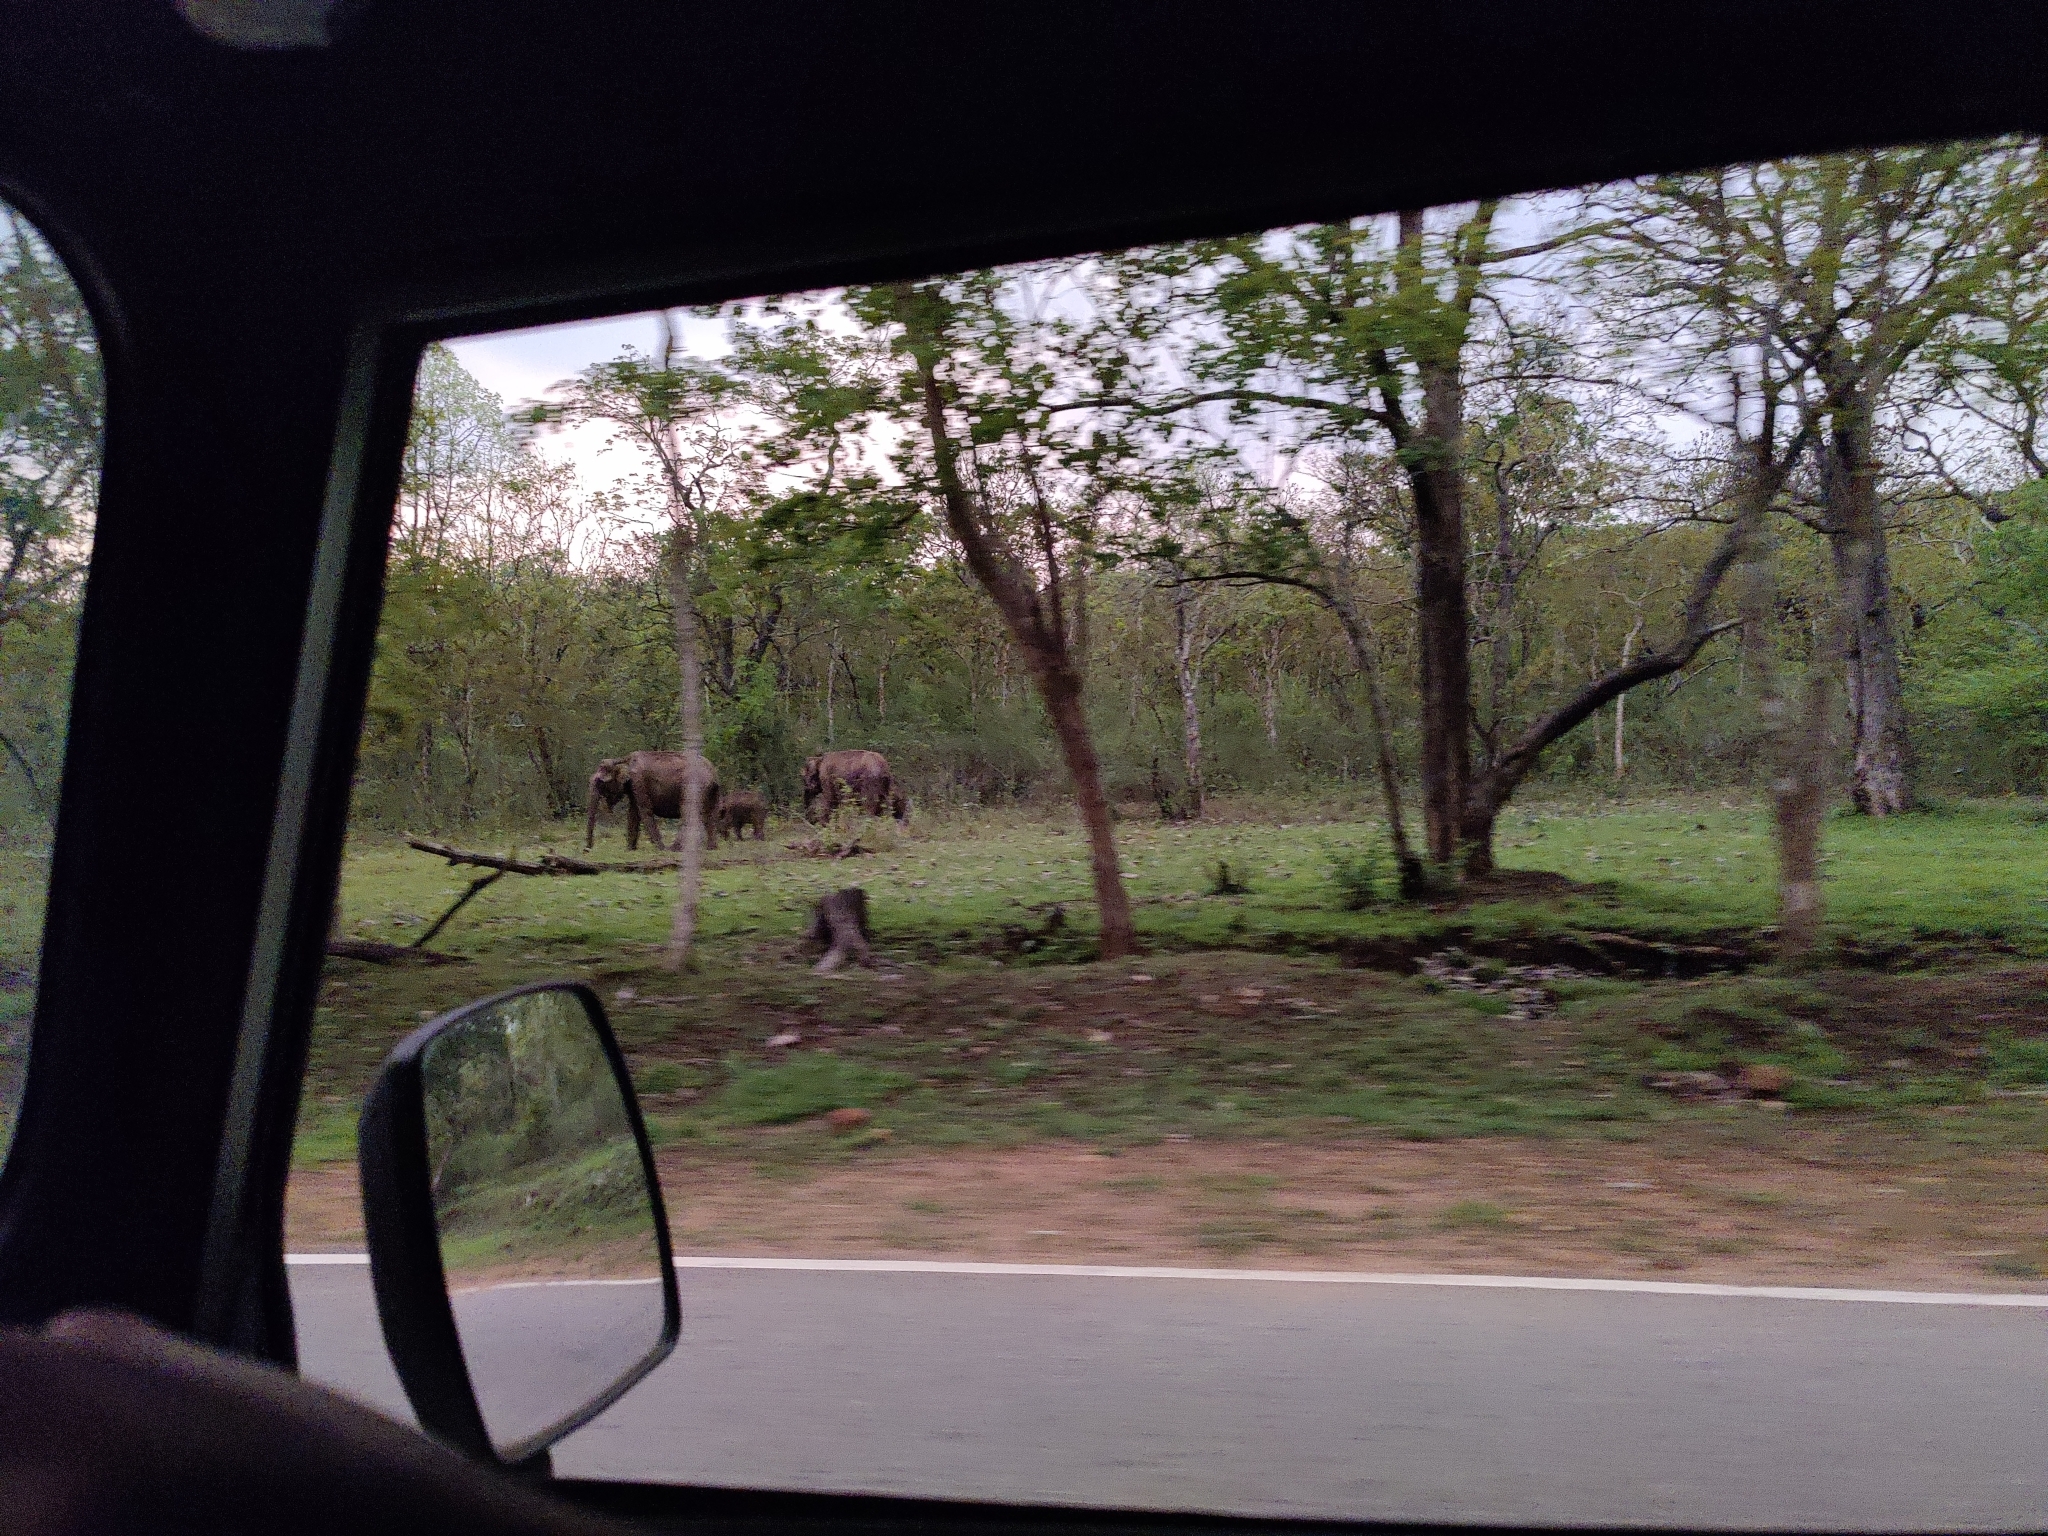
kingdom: Animalia
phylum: Chordata
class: Mammalia
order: Proboscidea
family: Elephantidae
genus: Elephas
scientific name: Elephas maximus
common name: Asian elephant
